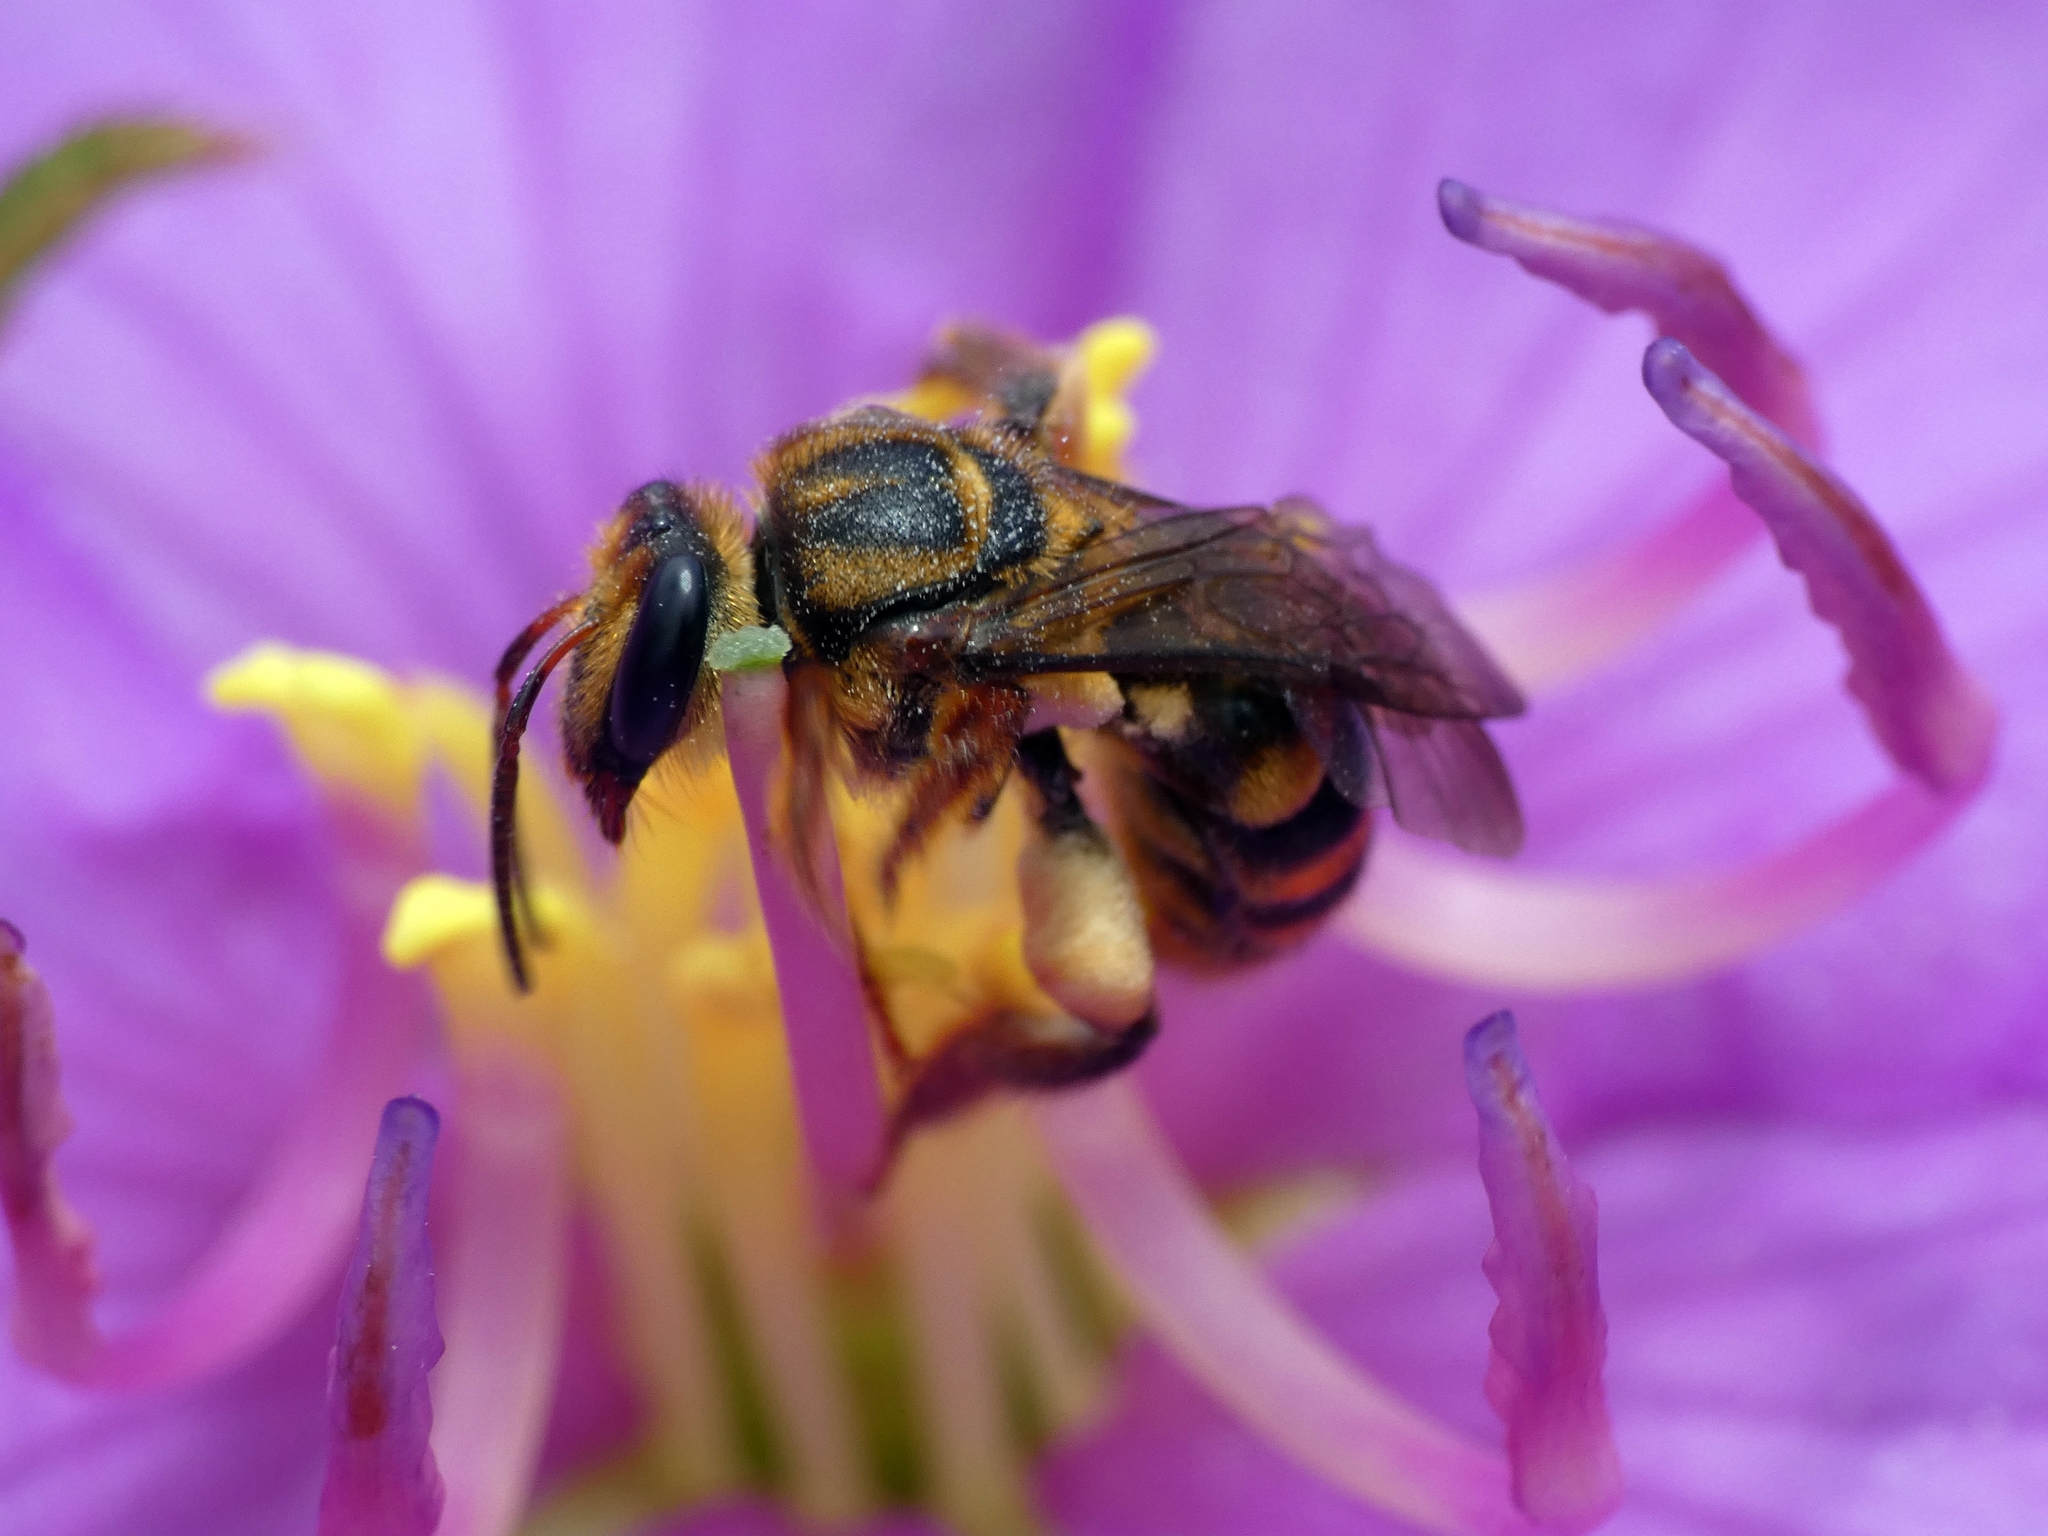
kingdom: Animalia
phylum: Arthropoda
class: Insecta
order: Hymenoptera
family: Halictidae
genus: Mellitidia
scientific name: Mellitidia tomentifera
